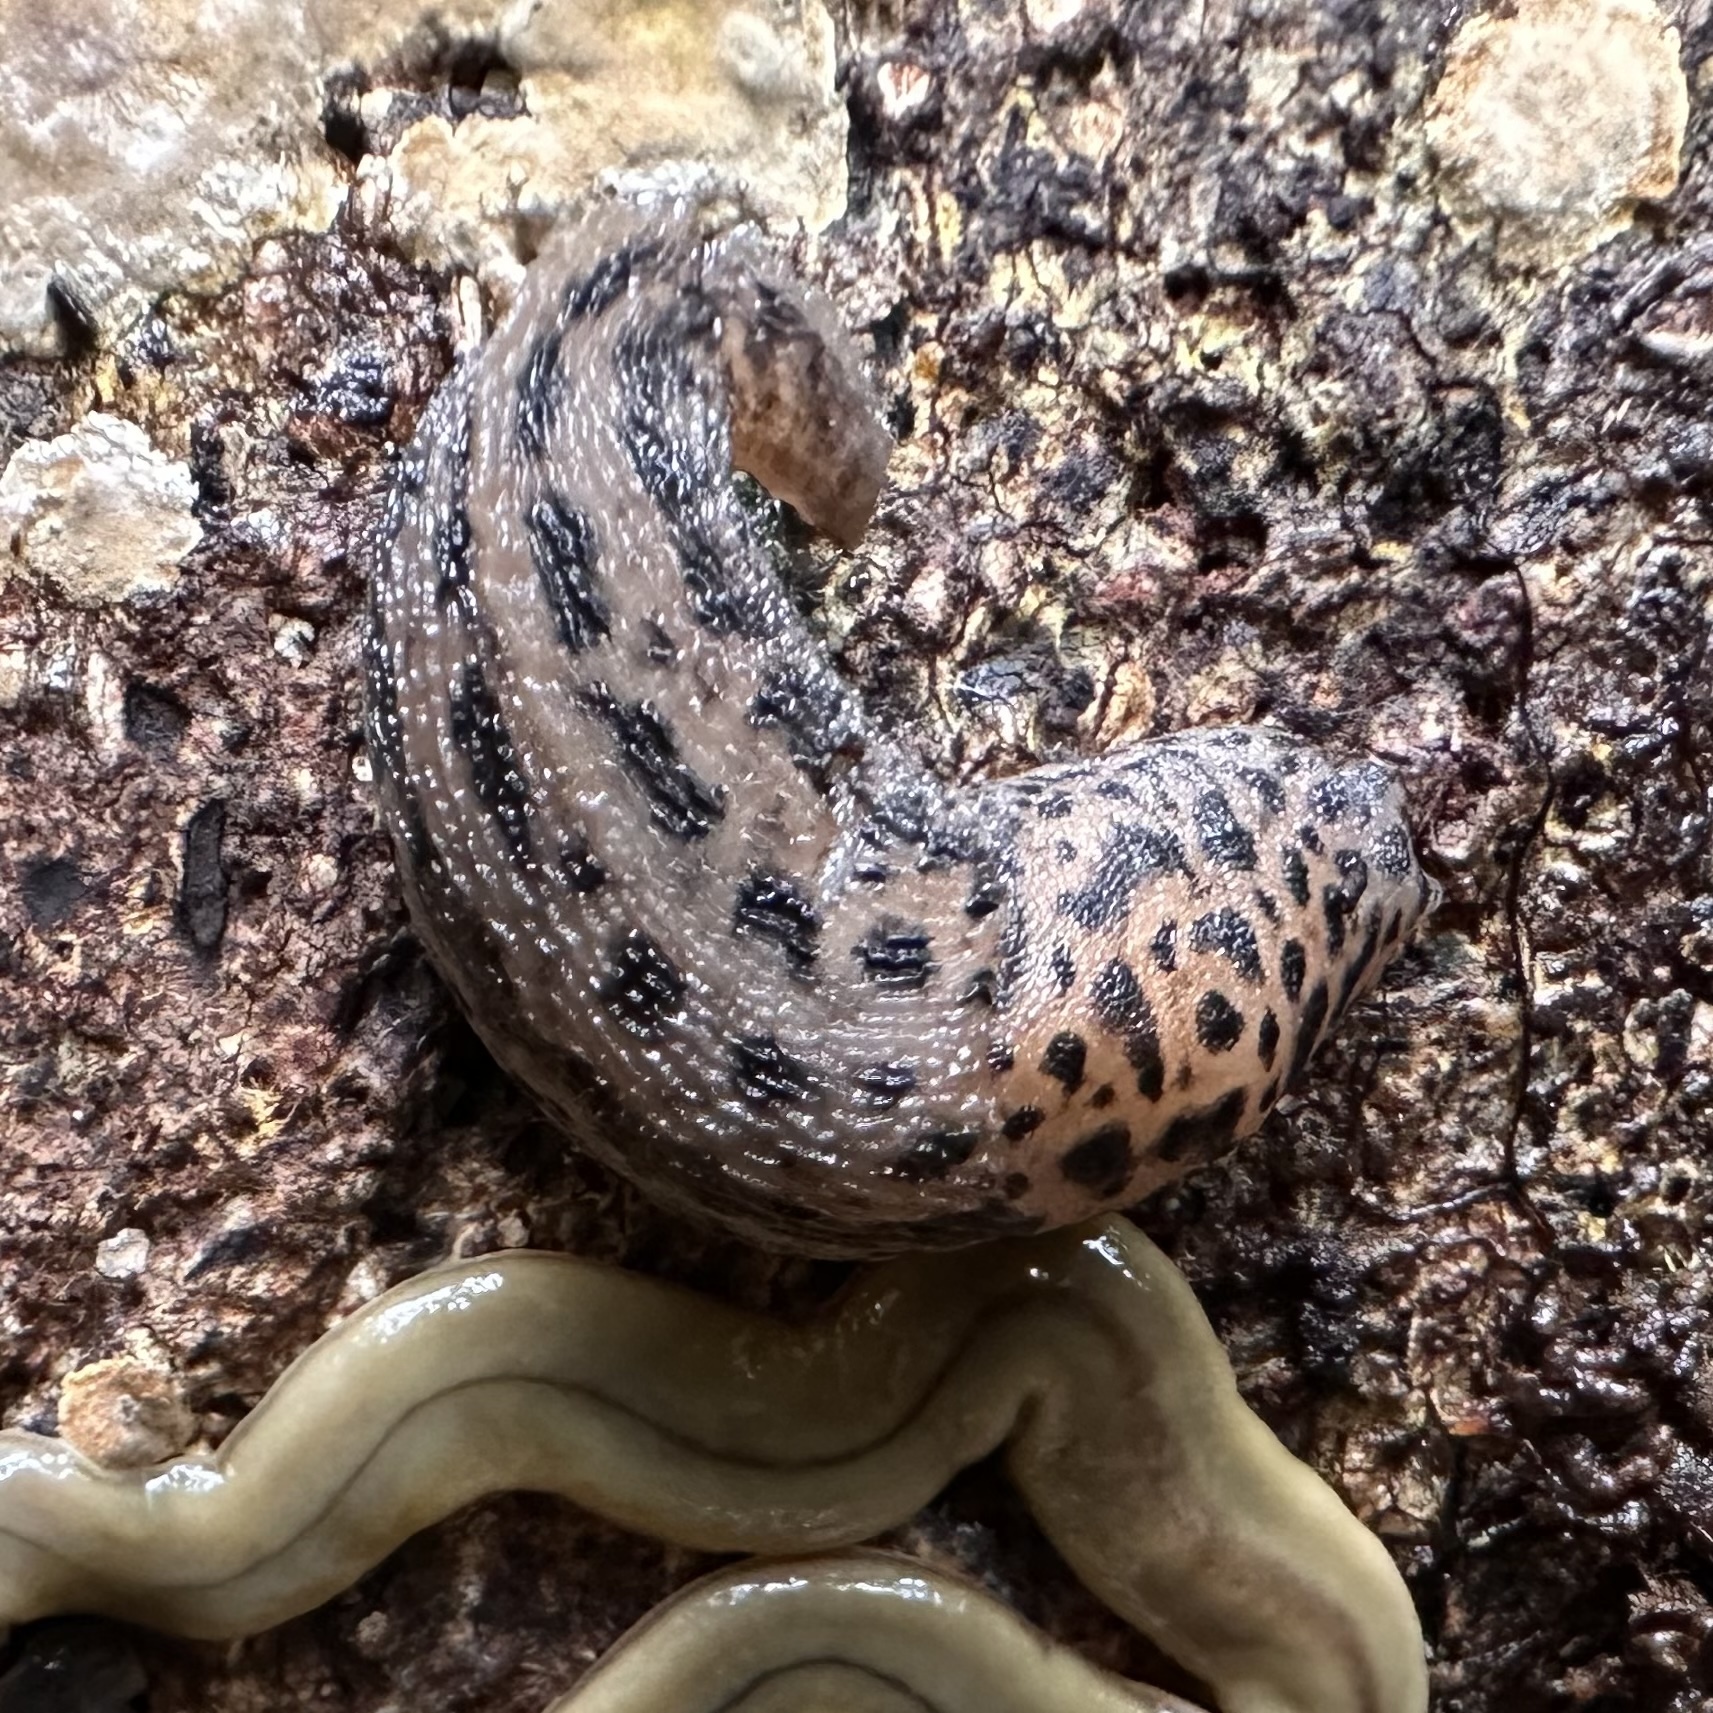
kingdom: Animalia
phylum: Mollusca
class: Gastropoda
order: Stylommatophora
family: Limacidae
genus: Limax
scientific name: Limax maximus
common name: Great grey slug
